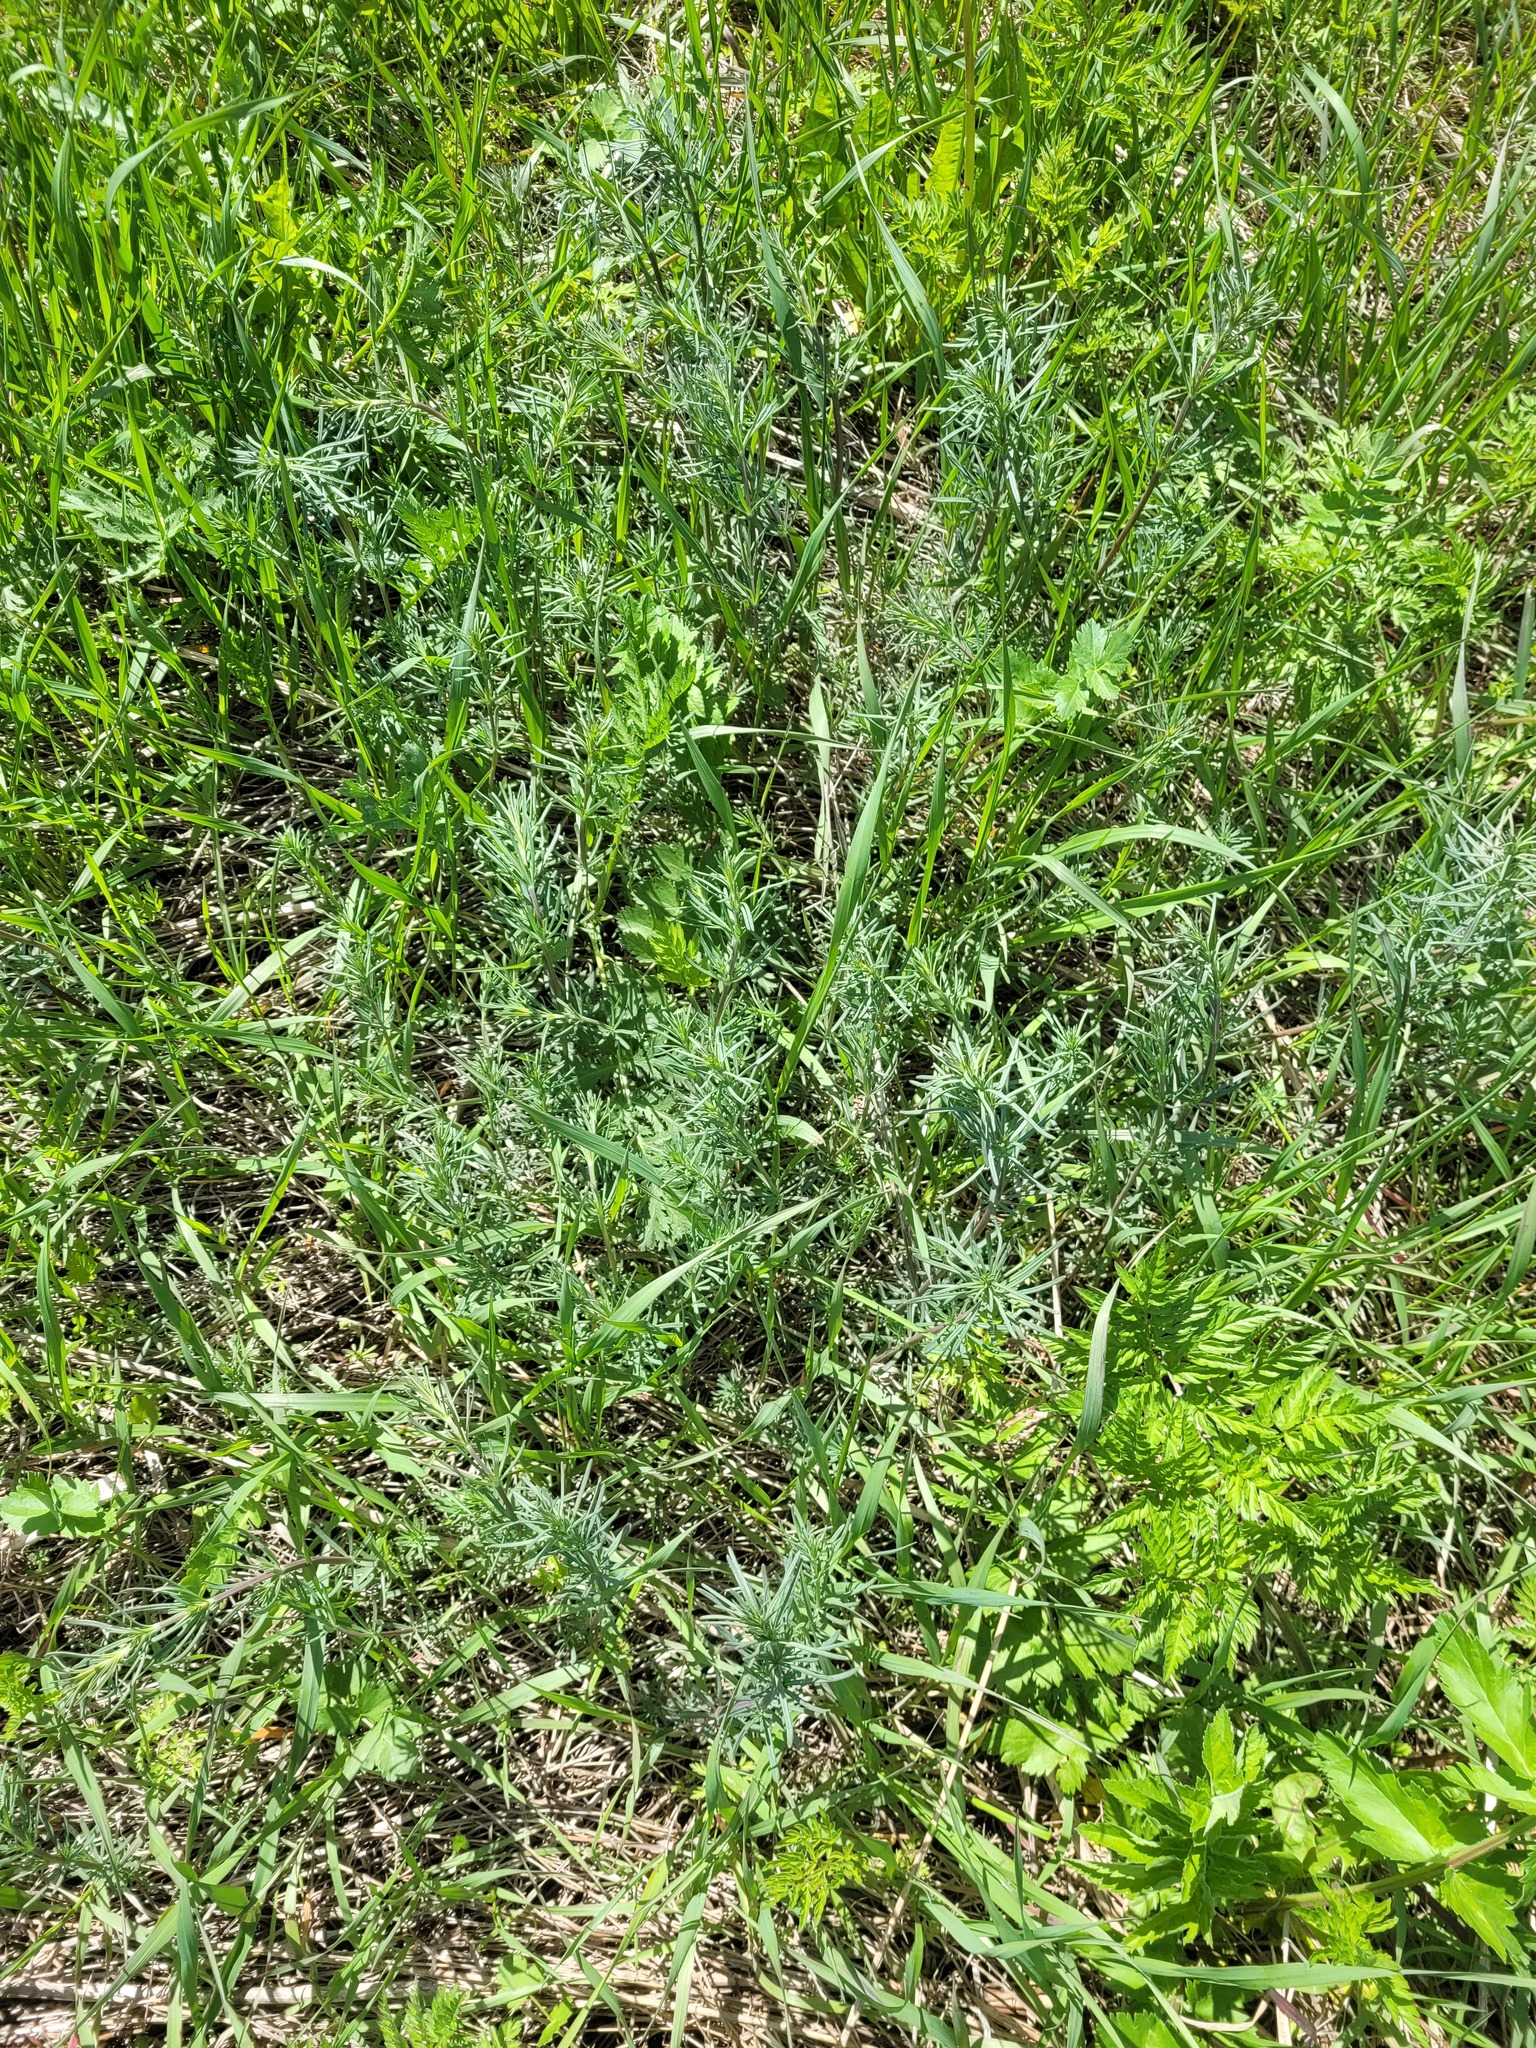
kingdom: Plantae
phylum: Tracheophyta
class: Magnoliopsida
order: Gentianales
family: Rubiaceae
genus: Galium
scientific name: Galium verum
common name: Lady's bedstraw
